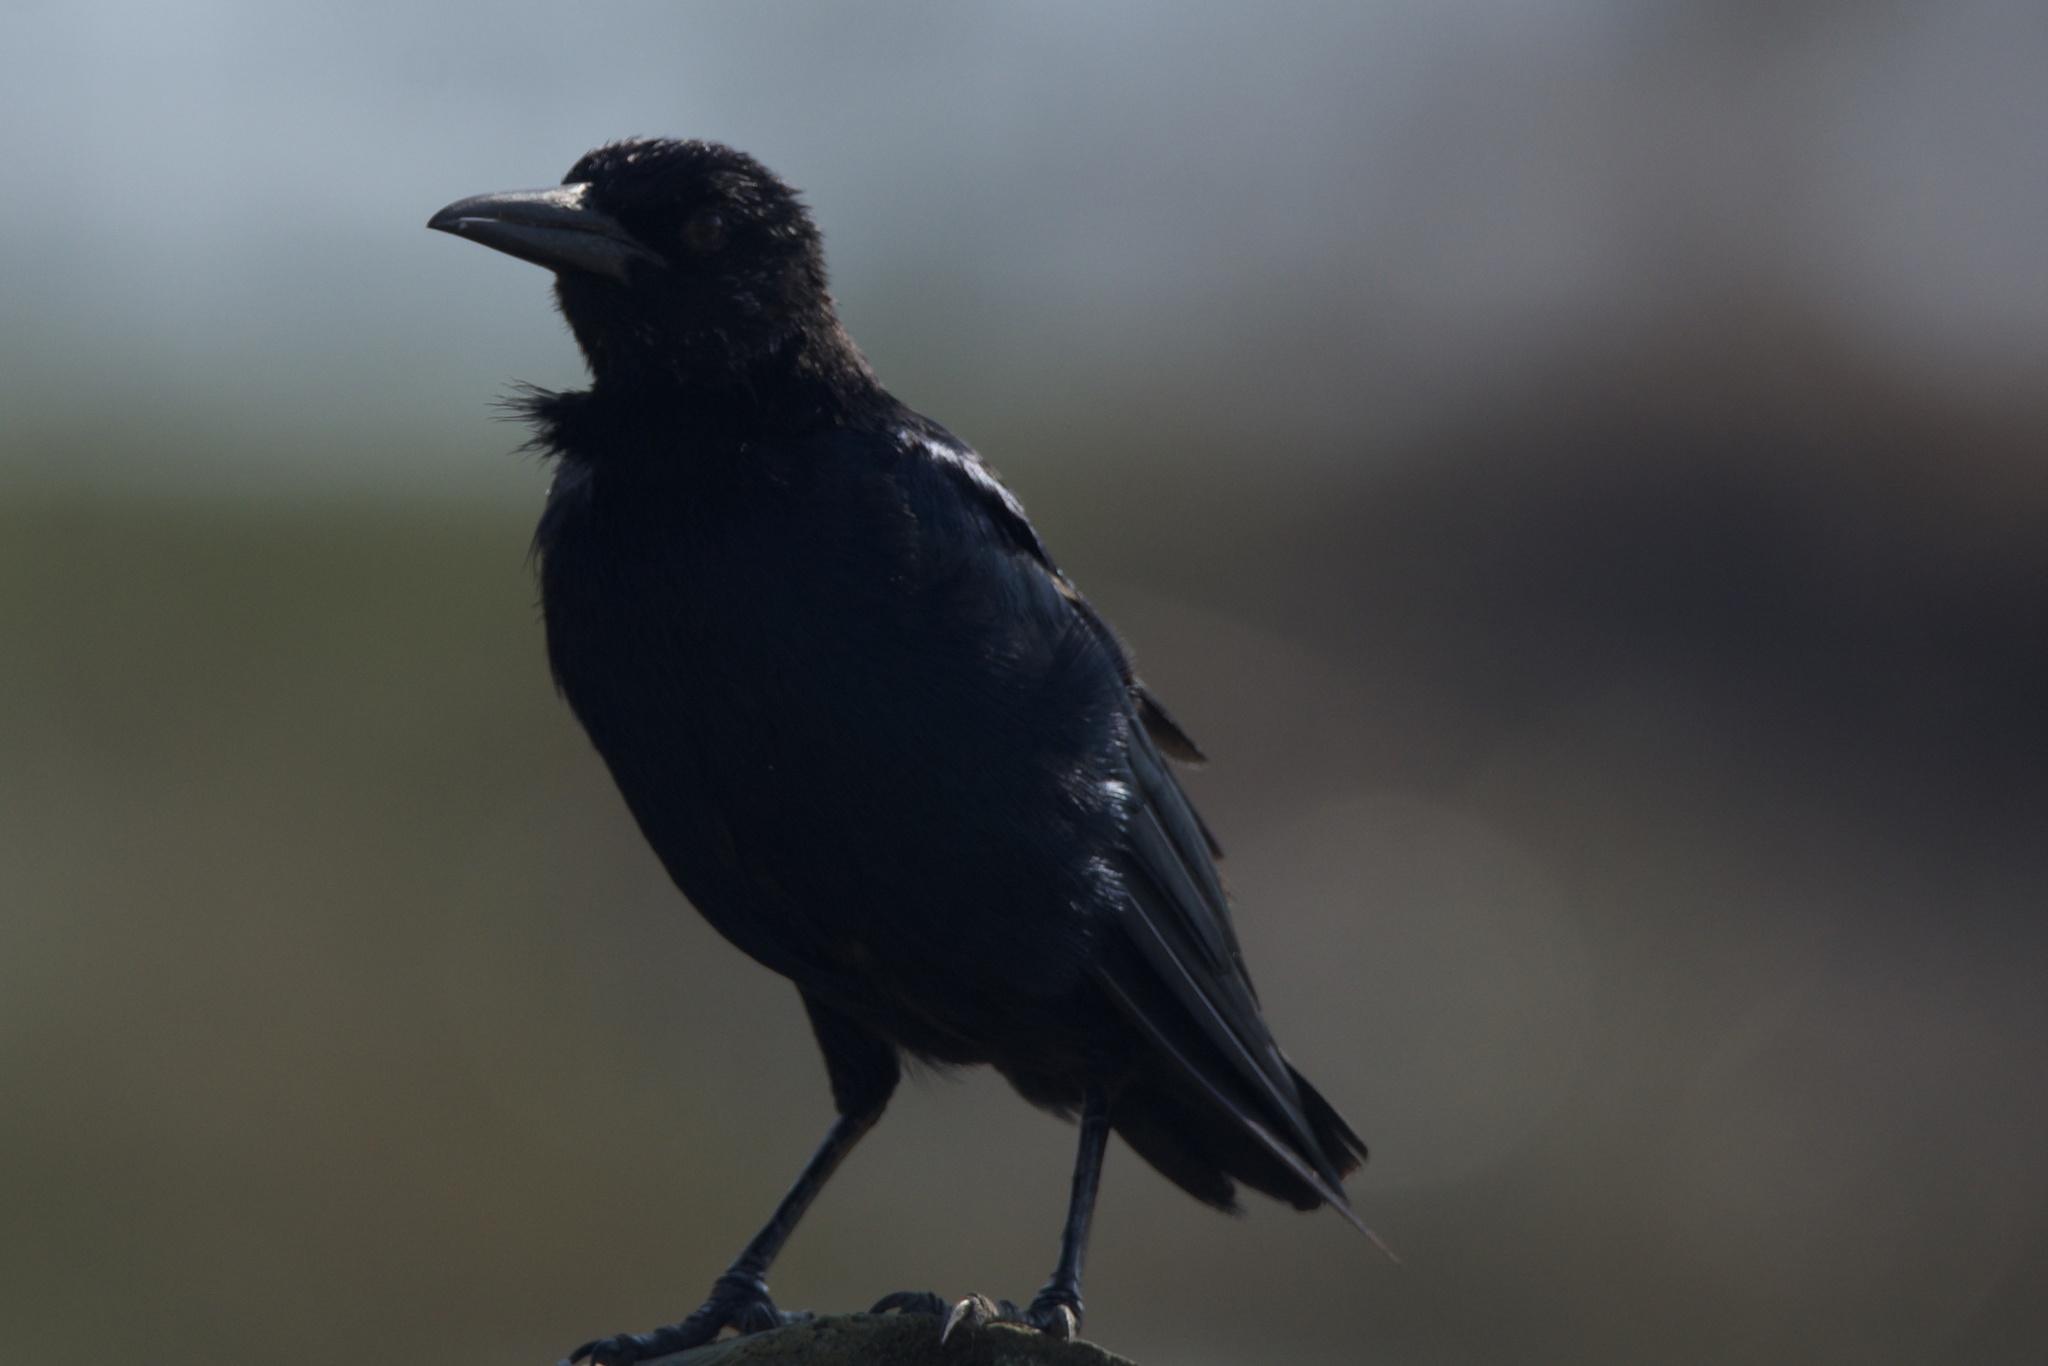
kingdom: Animalia
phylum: Chordata
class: Aves
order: Passeriformes
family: Icteridae
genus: Quiscalus
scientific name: Quiscalus major
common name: Boat-tailed grackle
